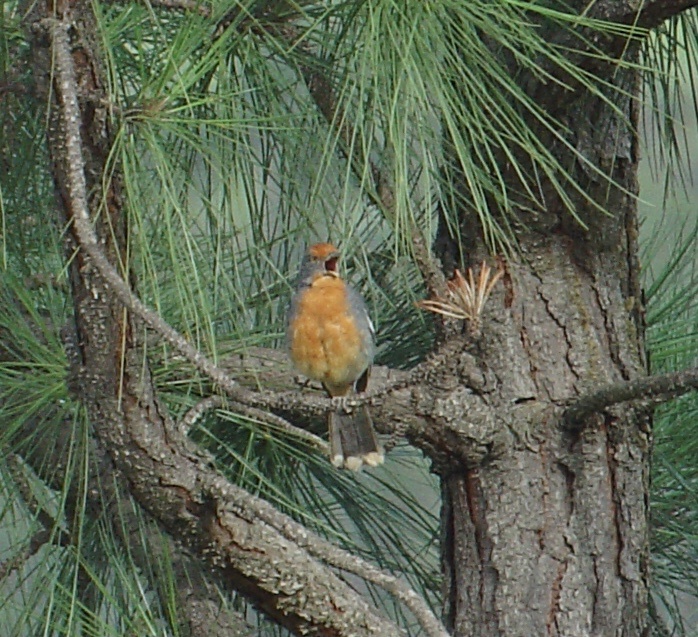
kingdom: Animalia
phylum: Chordata
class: Aves
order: Passeriformes
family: Cotingidae
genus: Phytotoma
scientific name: Phytotoma rutila
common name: White-tipped plantcutter
